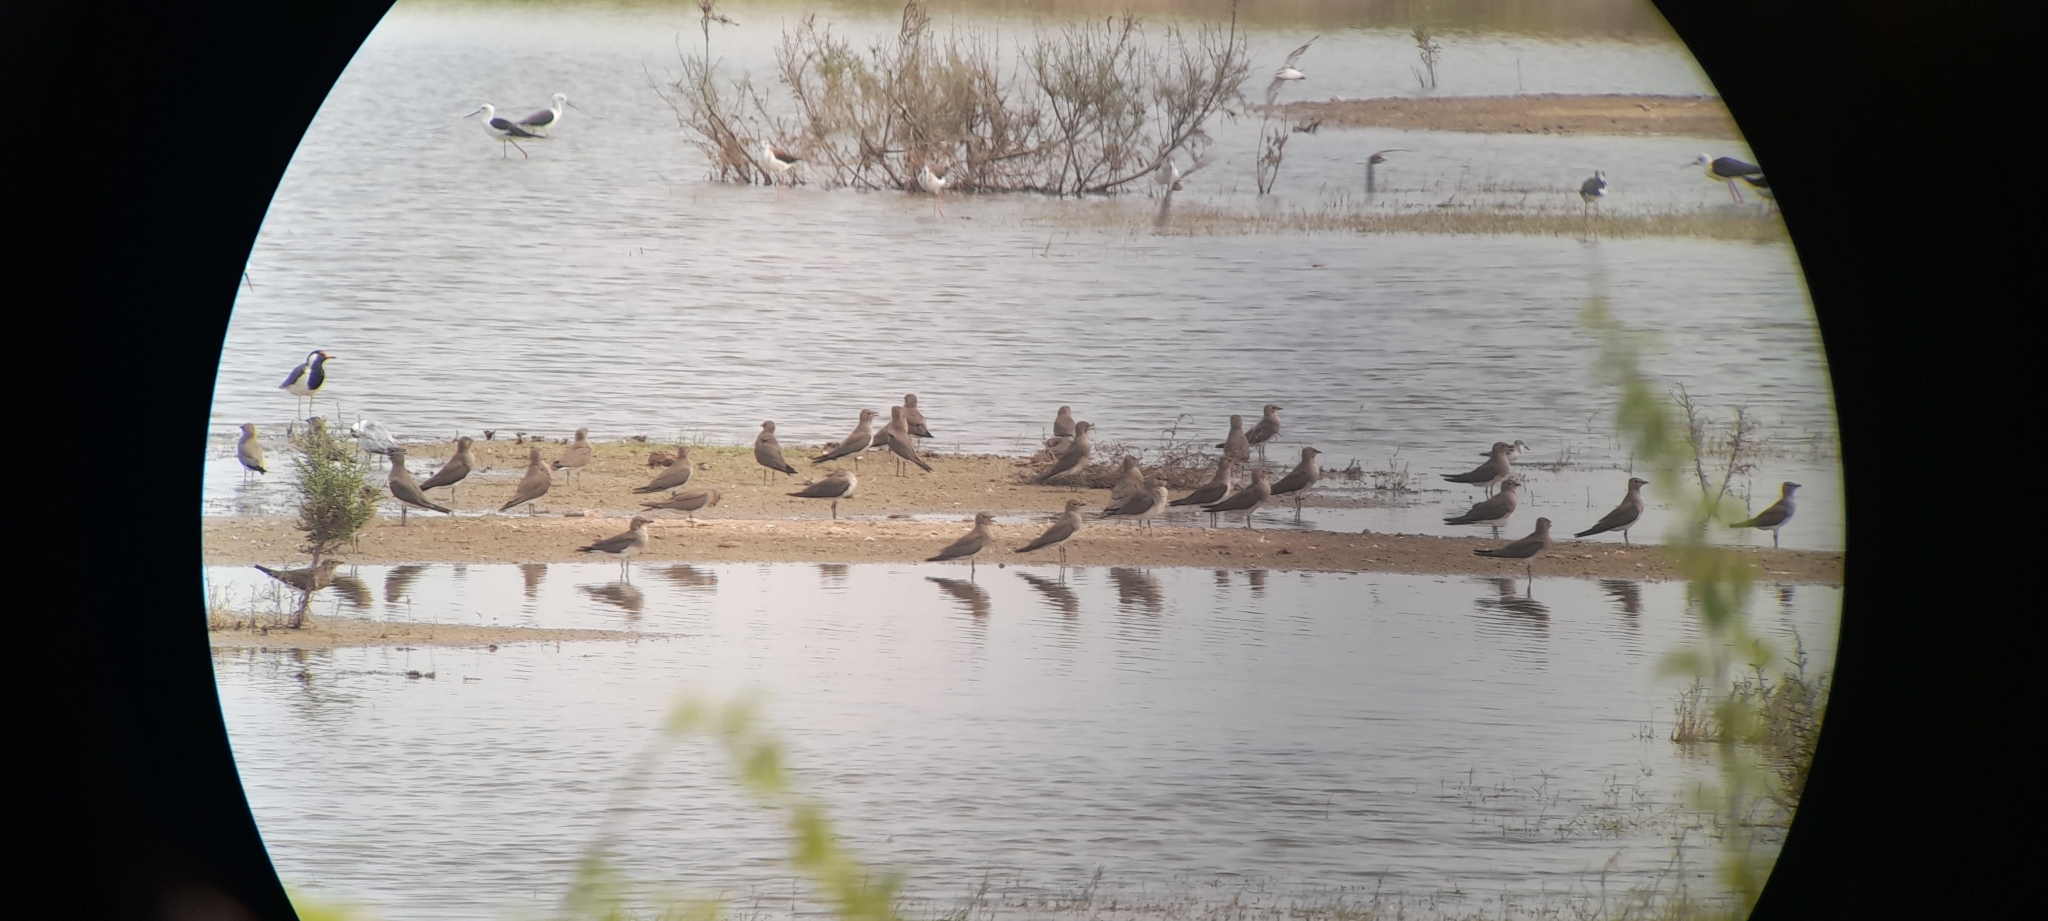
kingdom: Animalia
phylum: Chordata
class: Aves
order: Charadriiformes
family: Glareolidae
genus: Glareola
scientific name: Glareola pratincola
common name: Collared pratincole
